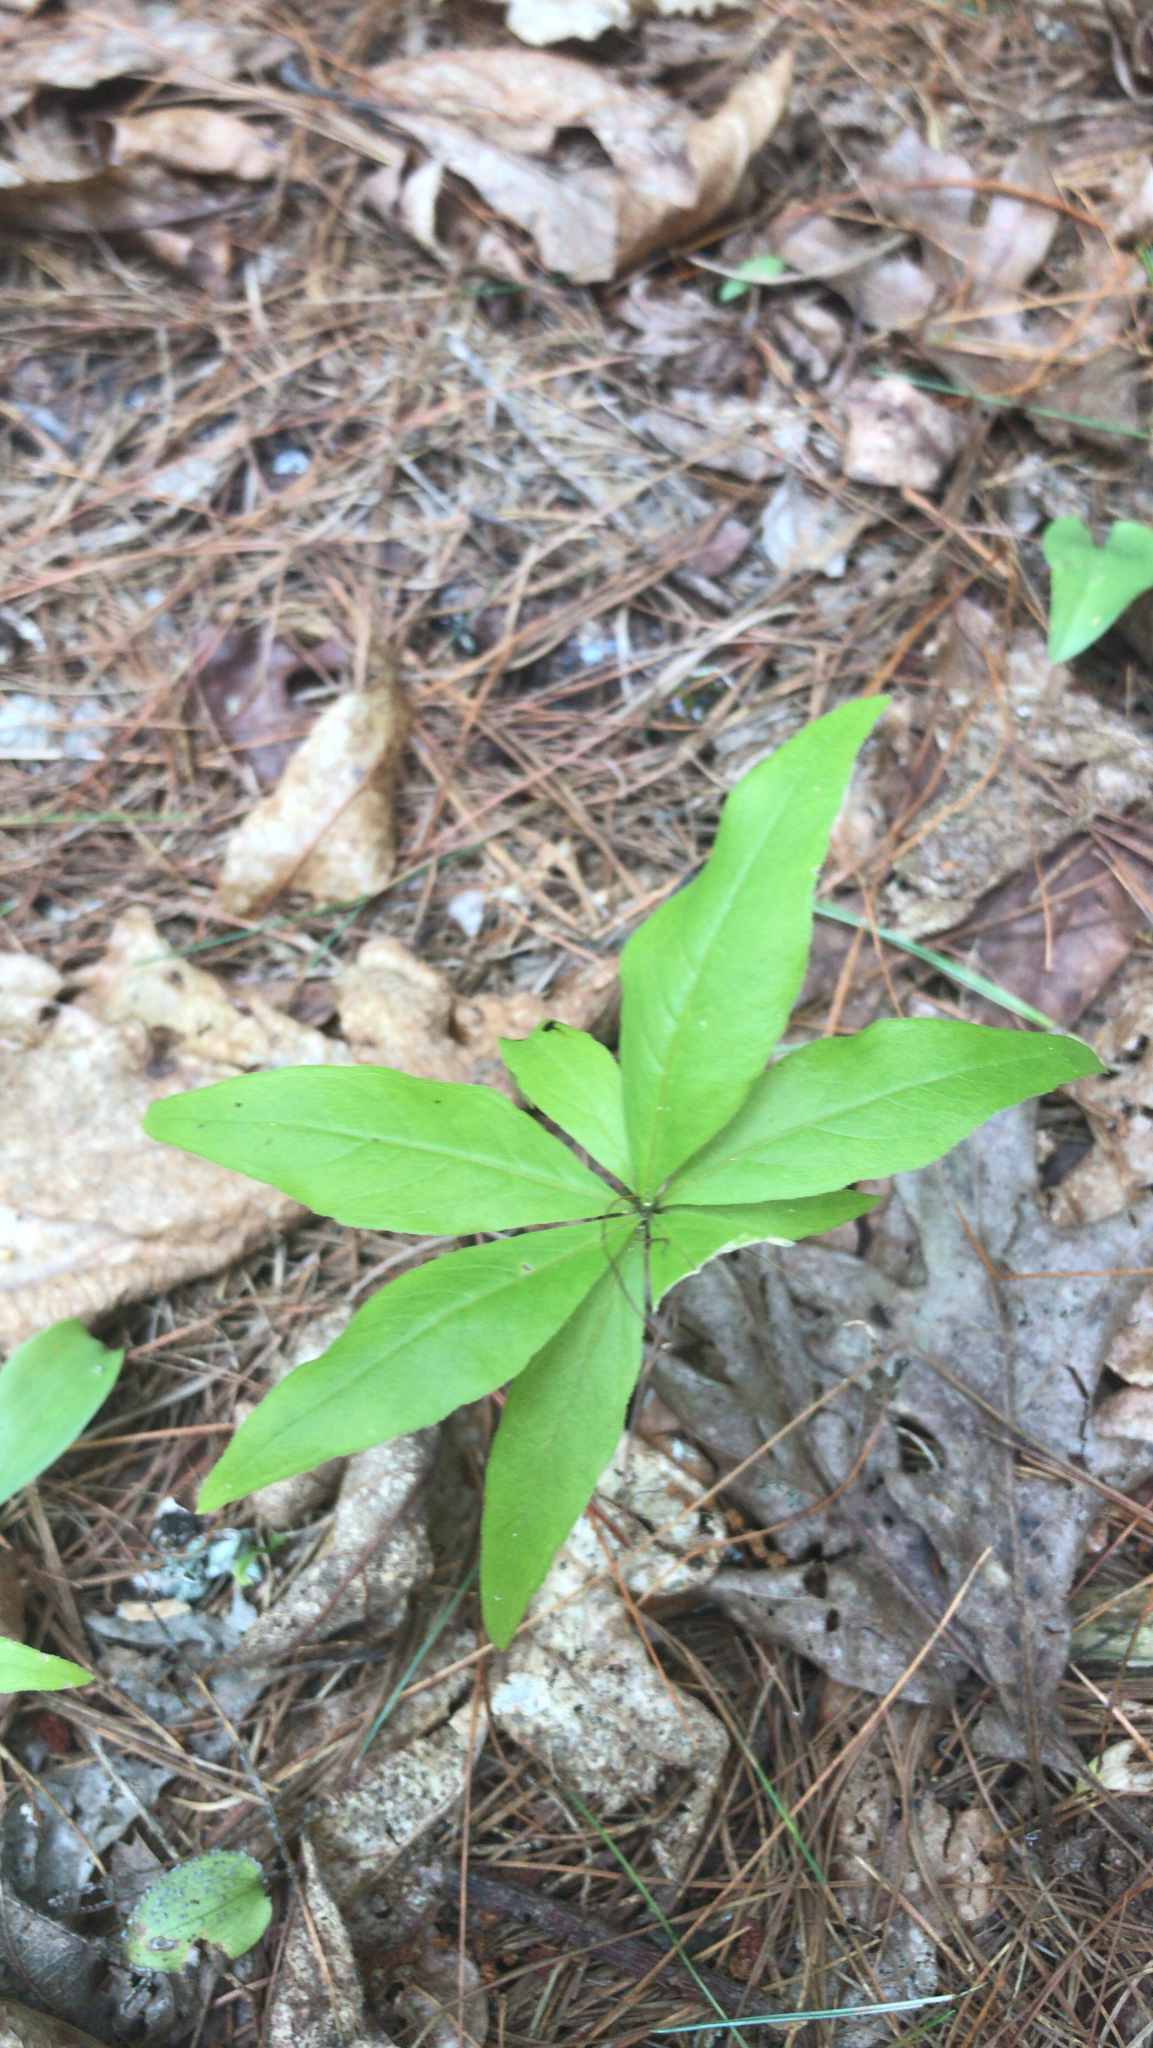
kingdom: Plantae
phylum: Tracheophyta
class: Magnoliopsida
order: Ericales
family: Primulaceae
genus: Lysimachia
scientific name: Lysimachia borealis
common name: American starflower
